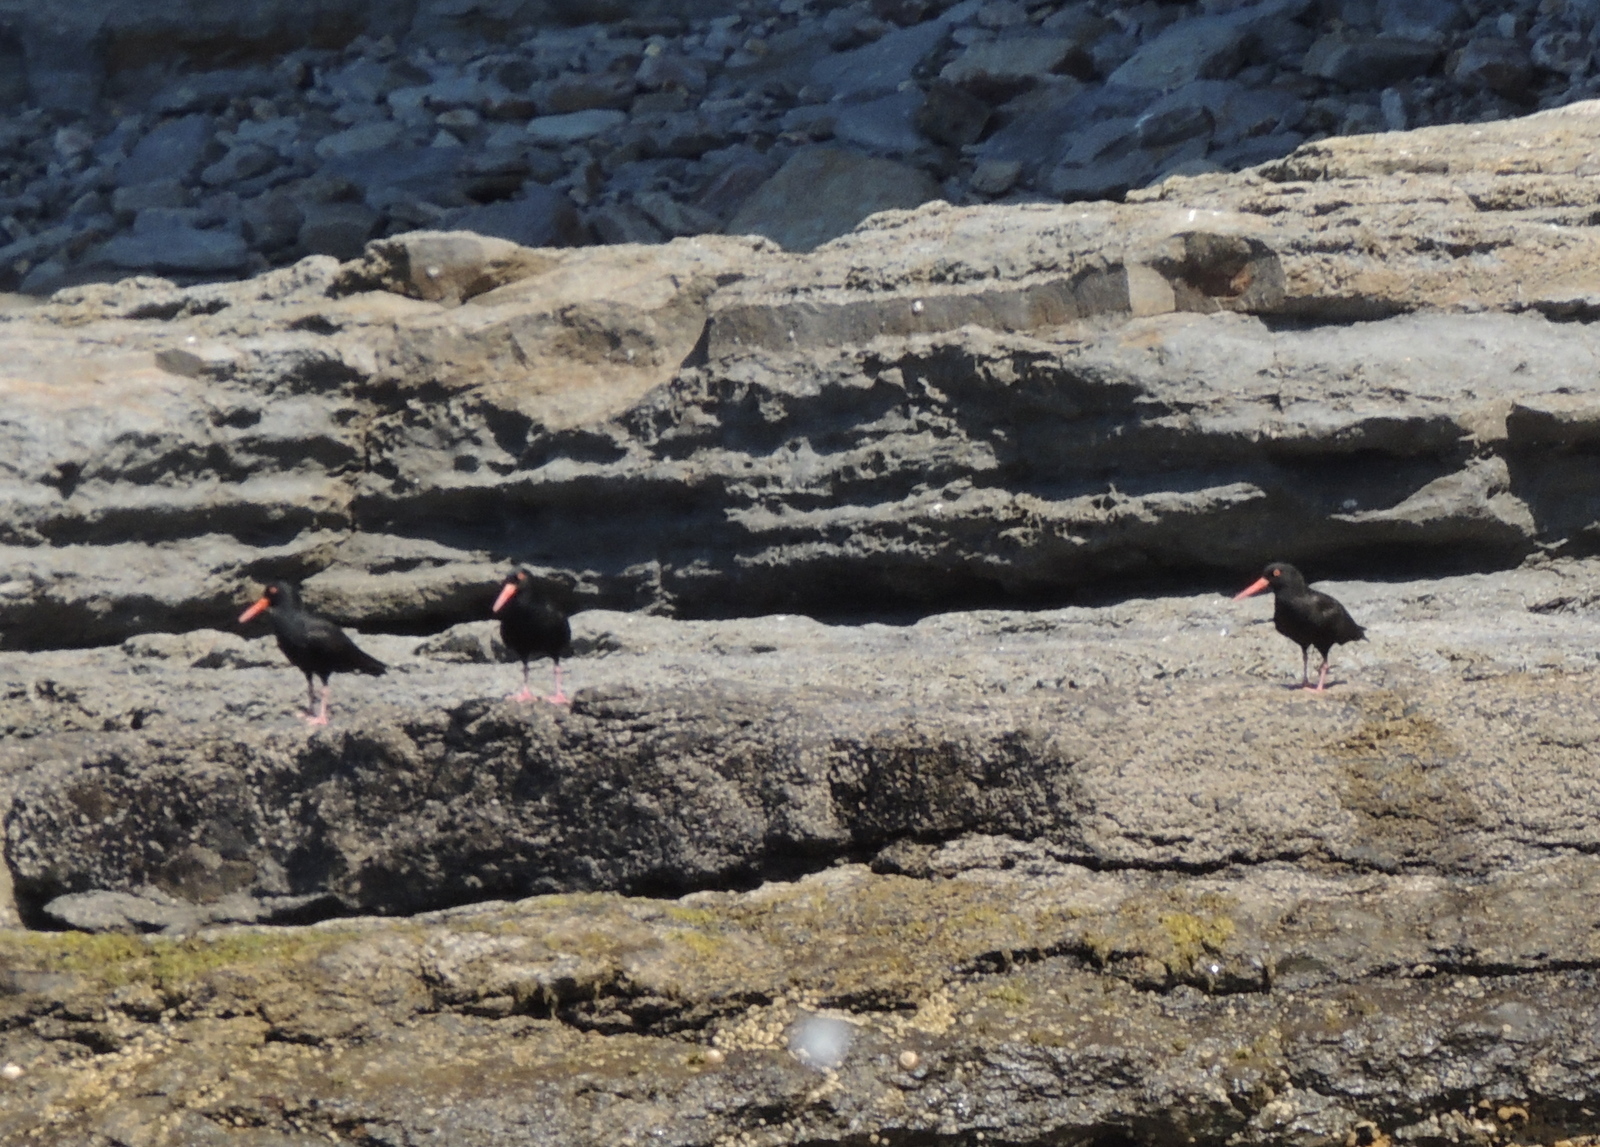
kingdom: Animalia
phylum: Chordata
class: Aves
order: Charadriiformes
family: Haematopodidae
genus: Haematopus
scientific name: Haematopus fuliginosus
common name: Sooty oystercatcher
